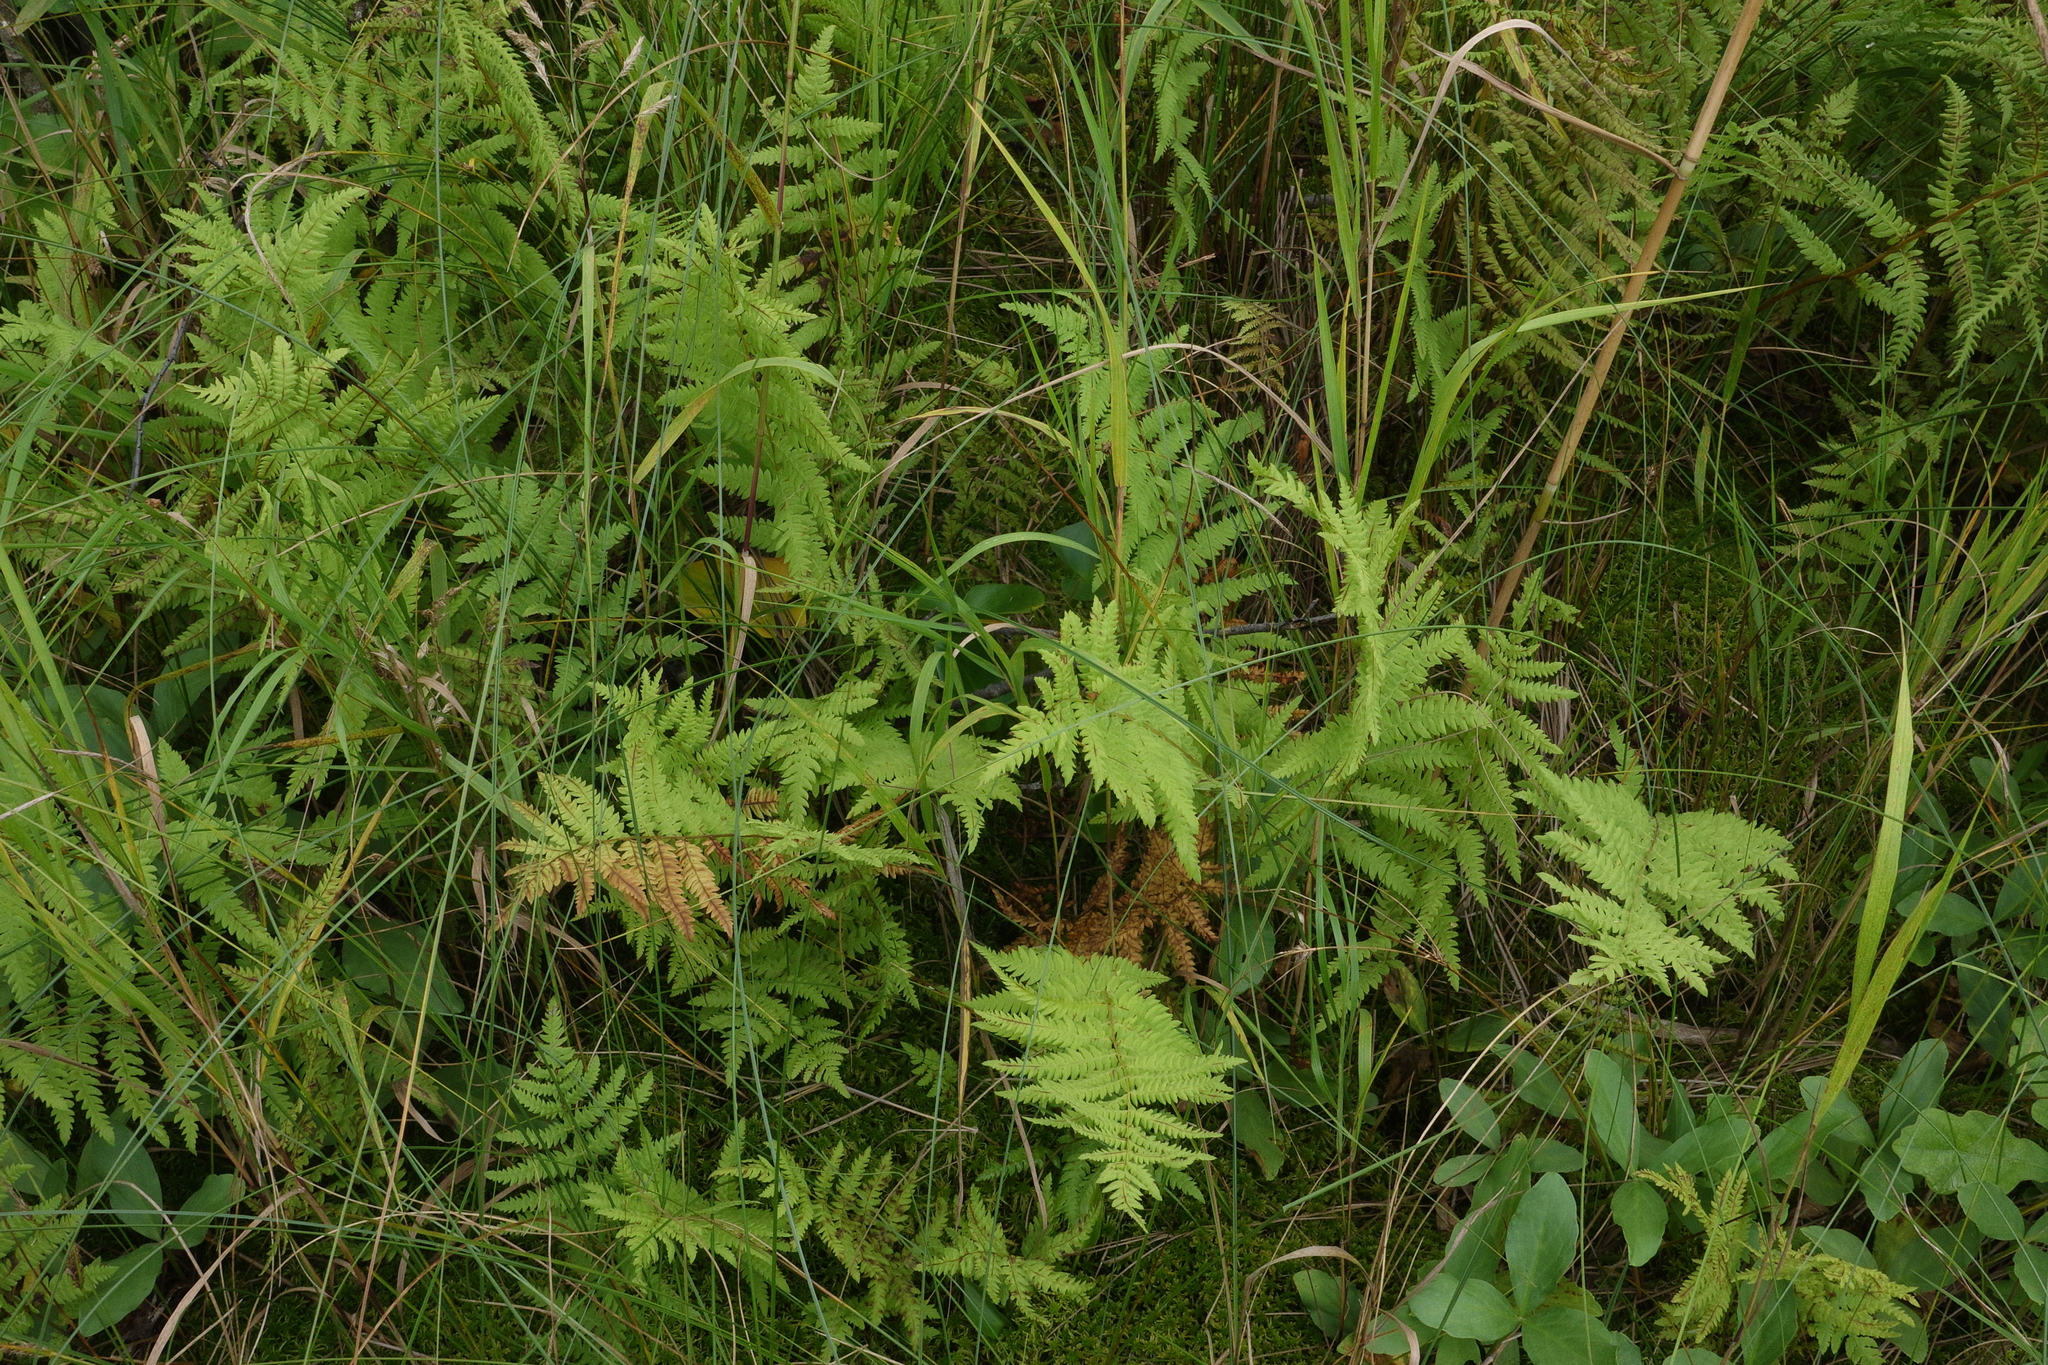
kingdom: Plantae
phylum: Tracheophyta
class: Polypodiopsida
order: Polypodiales
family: Thelypteridaceae
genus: Thelypteris
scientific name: Thelypteris palustris
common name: Marsh fern
